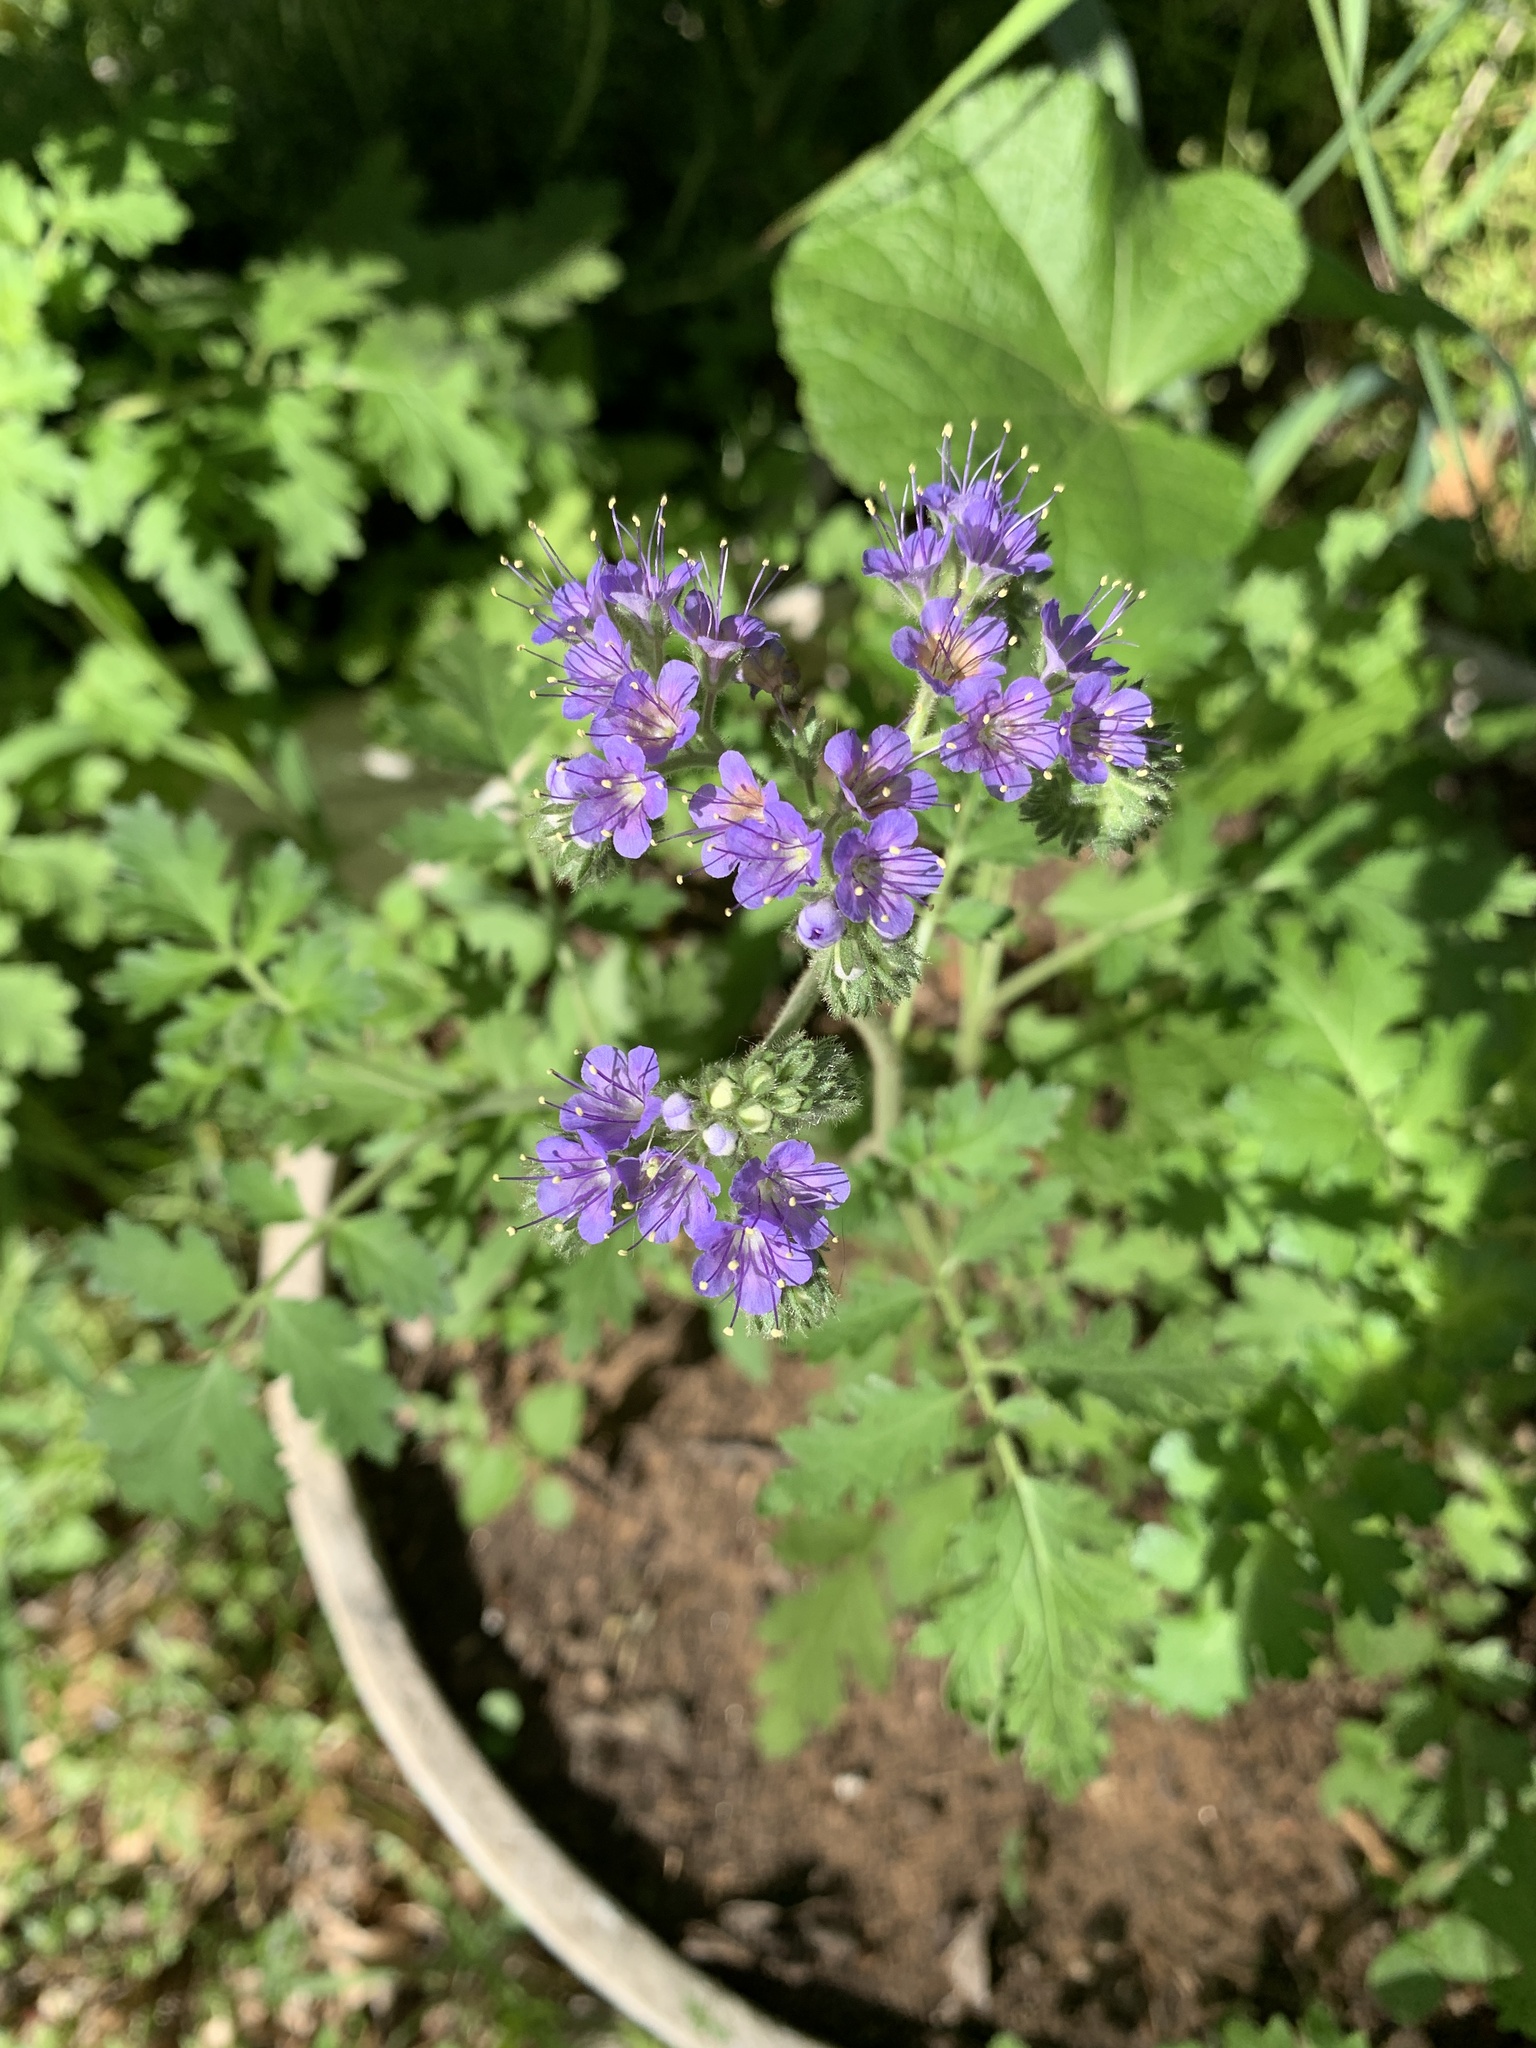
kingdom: Plantae
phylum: Tracheophyta
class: Magnoliopsida
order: Boraginales
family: Hydrophyllaceae
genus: Phacelia
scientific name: Phacelia congesta
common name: Blue curls
